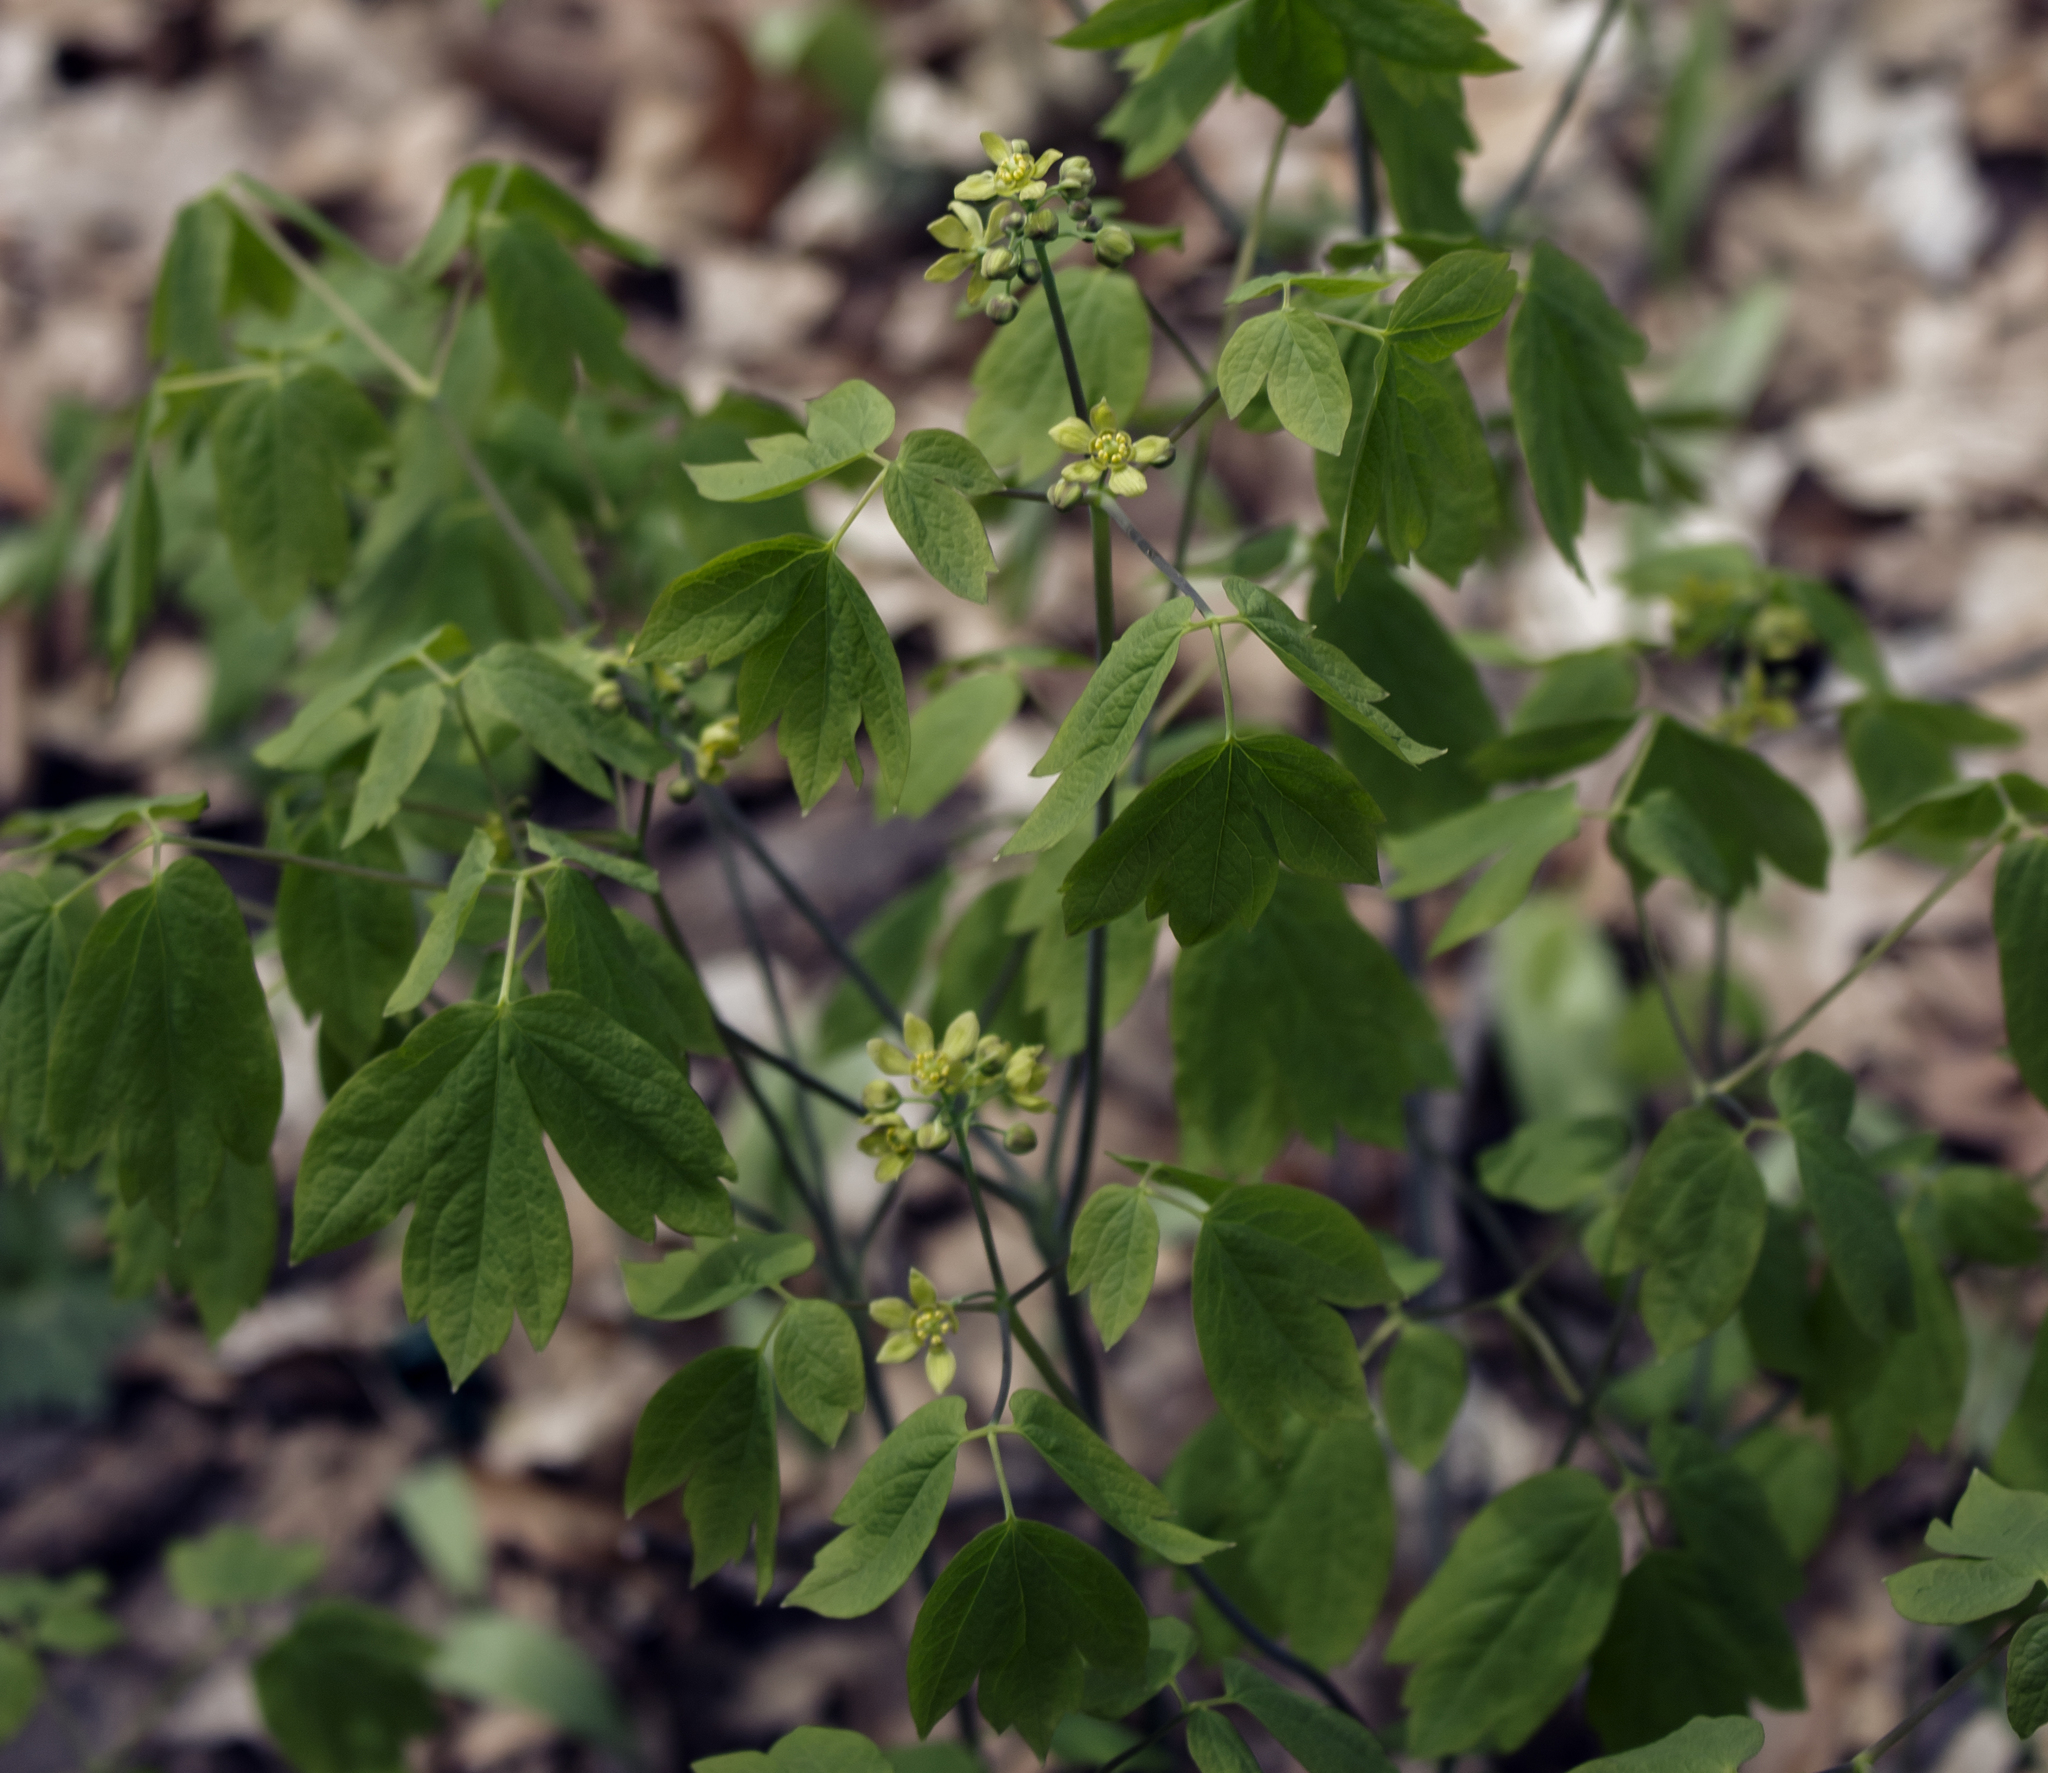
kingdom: Plantae
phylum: Tracheophyta
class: Magnoliopsida
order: Ranunculales
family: Berberidaceae
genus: Caulophyllum
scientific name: Caulophyllum thalictroides
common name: Blue cohosh
